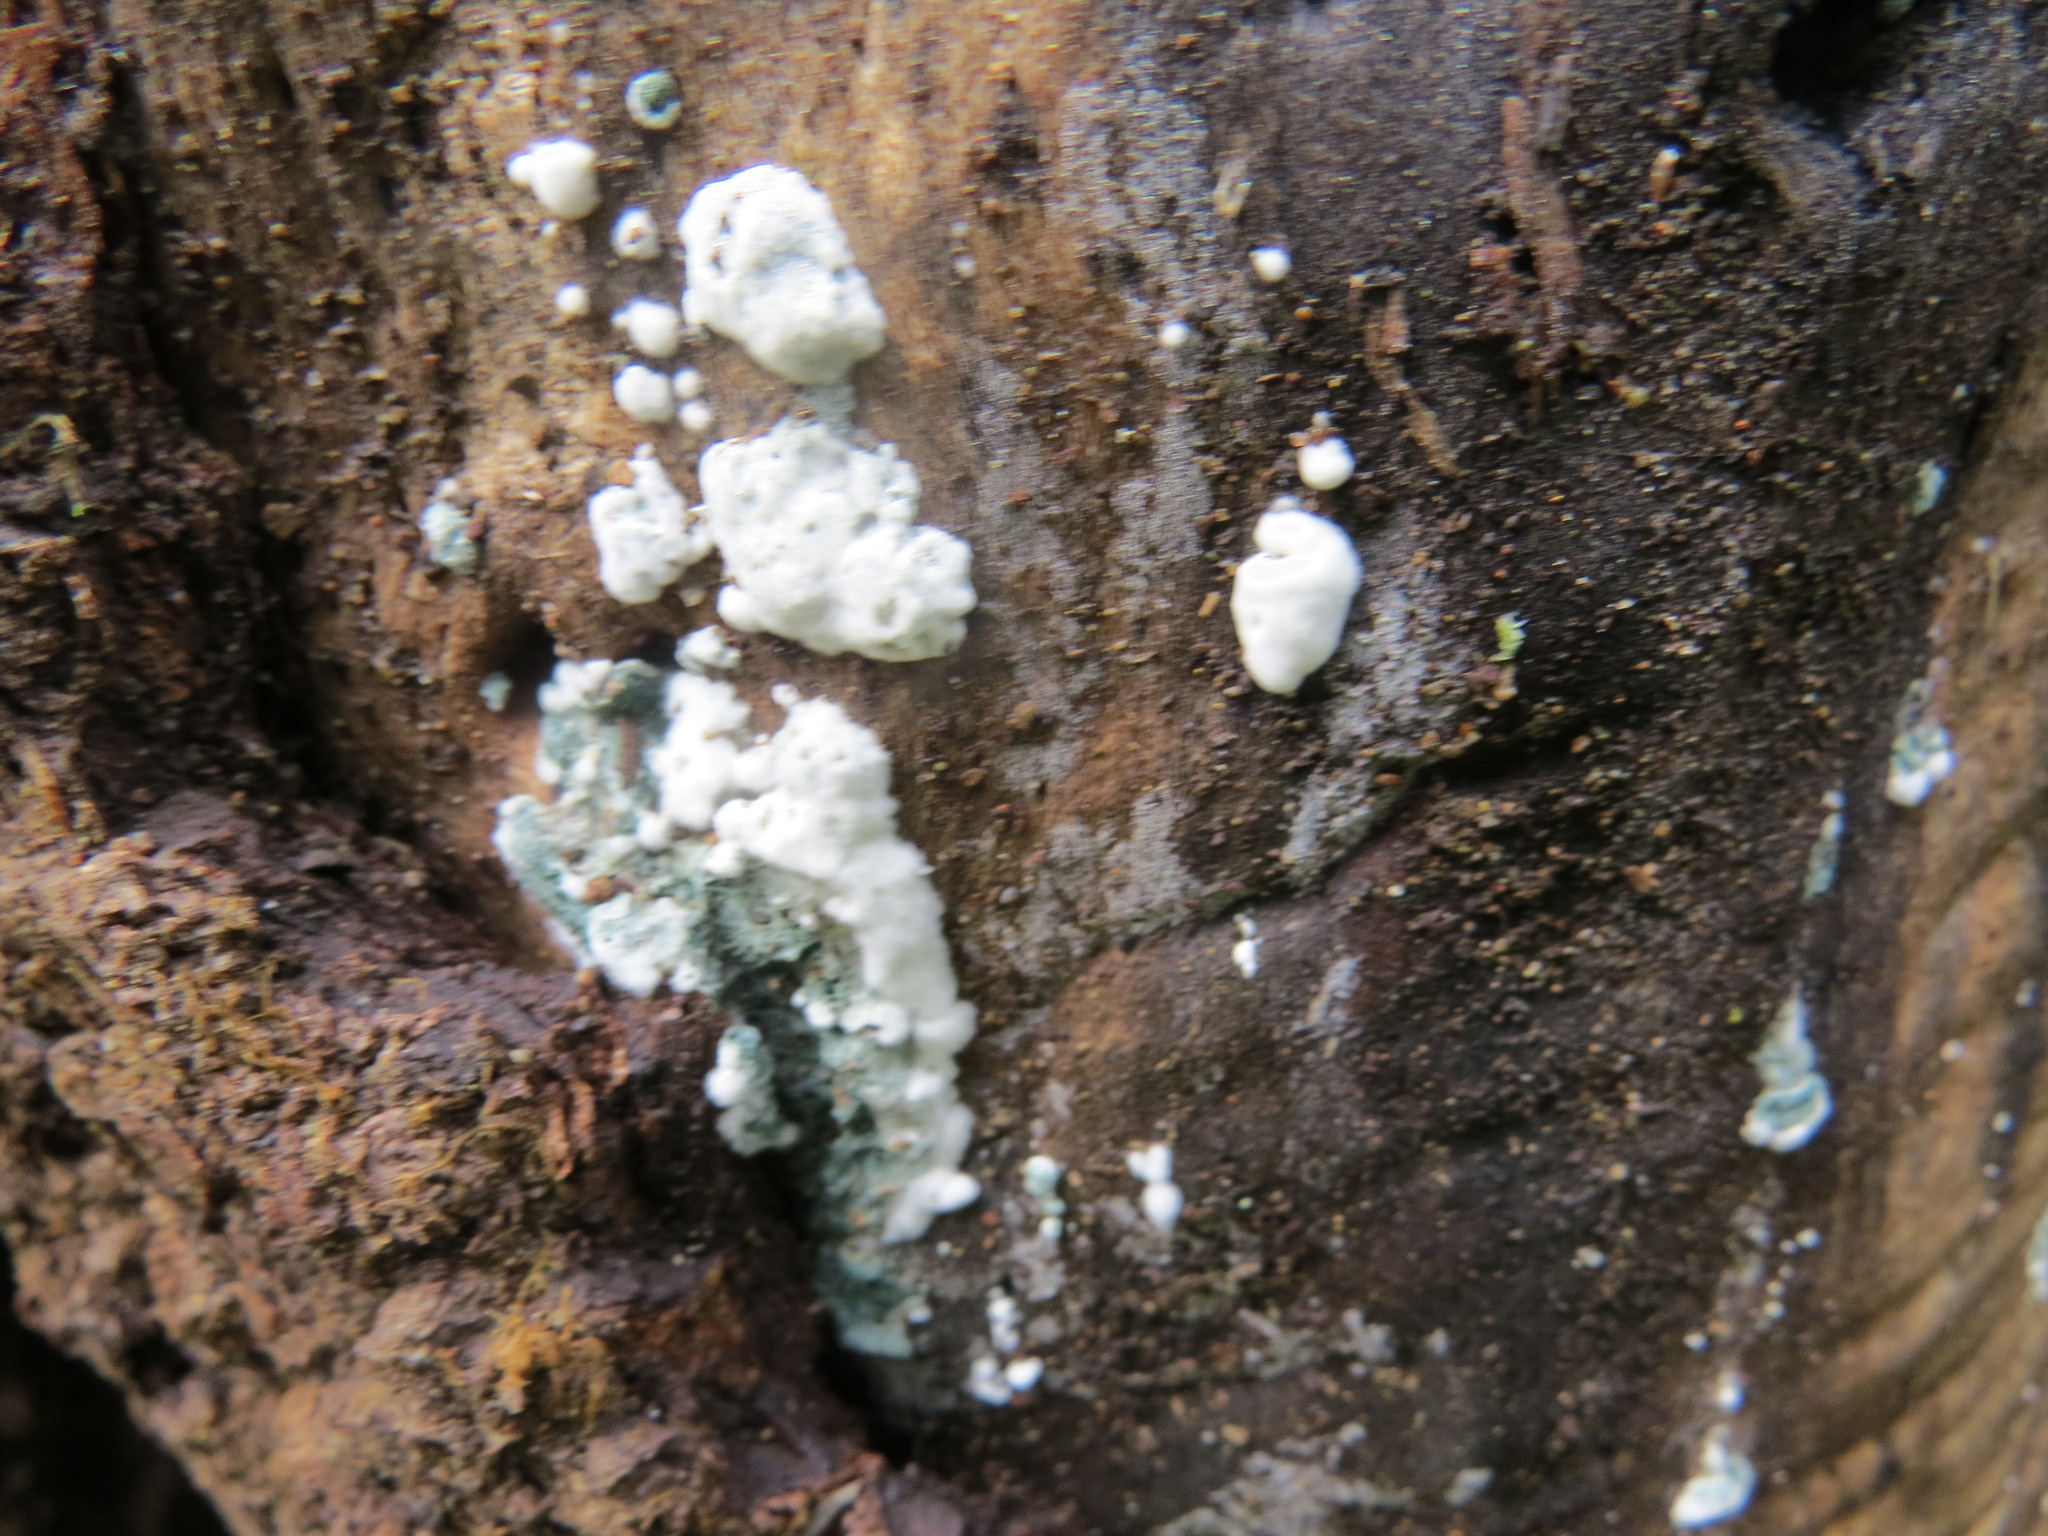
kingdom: Fungi
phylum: Ascomycota
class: Sordariomycetes
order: Hypocreales
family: Hypocreaceae
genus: Trichoderma
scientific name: Trichoderma viride
